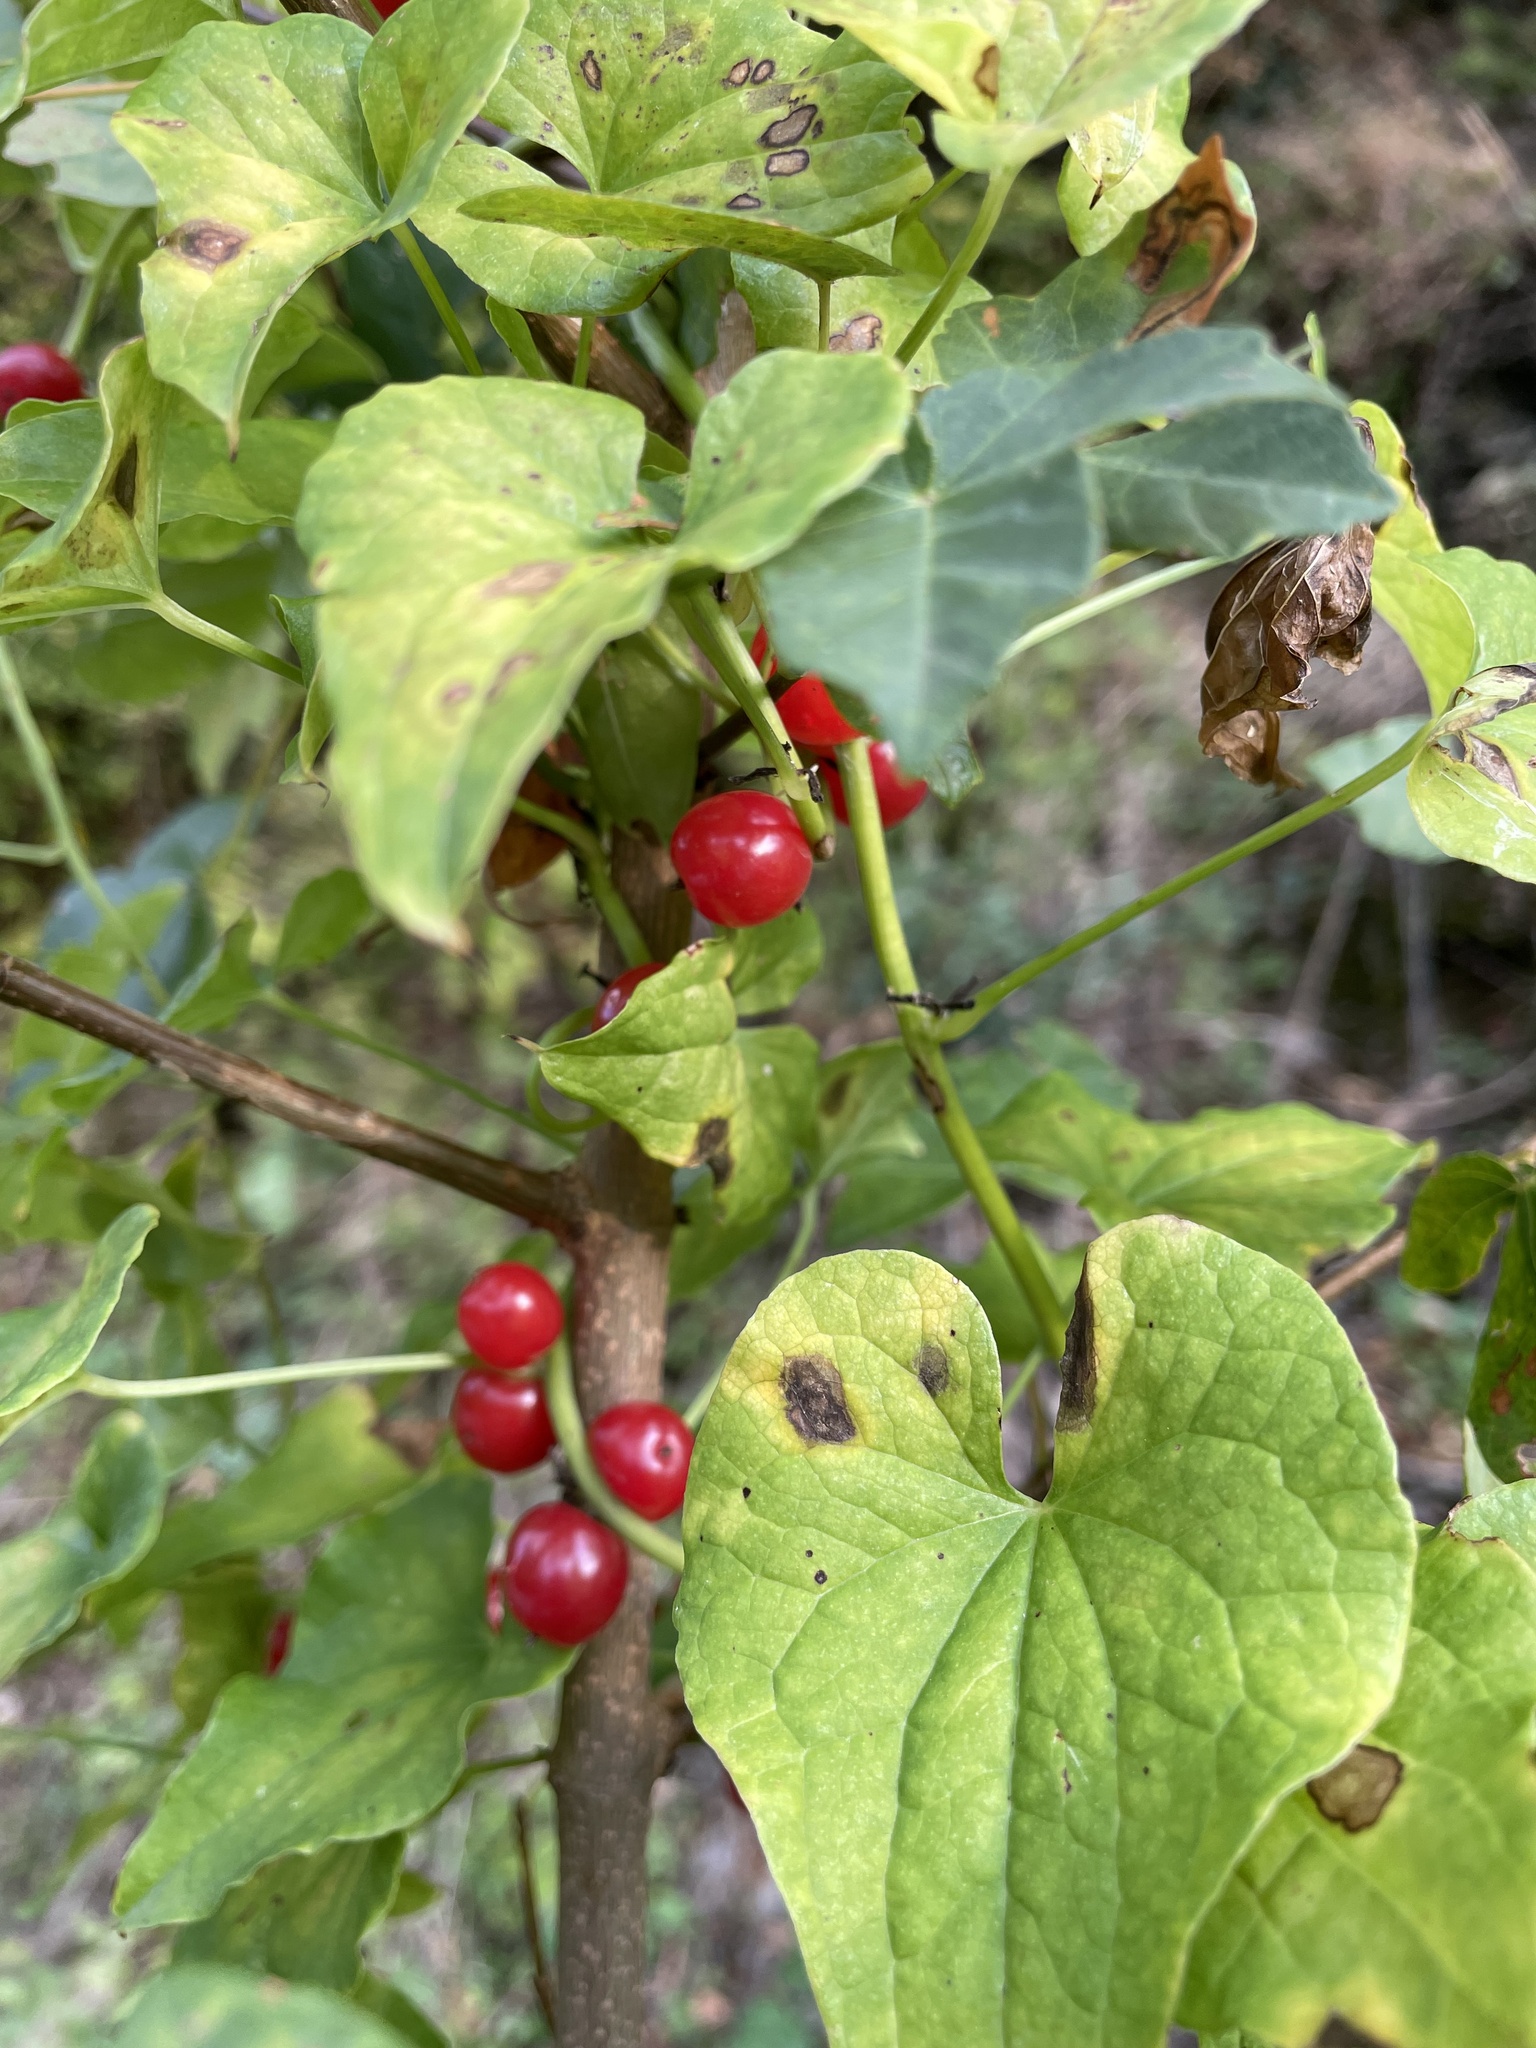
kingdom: Plantae
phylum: Tracheophyta
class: Liliopsida
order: Liliales
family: Smilacaceae
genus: Smilax
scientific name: Smilax aspera
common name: Common smilax
